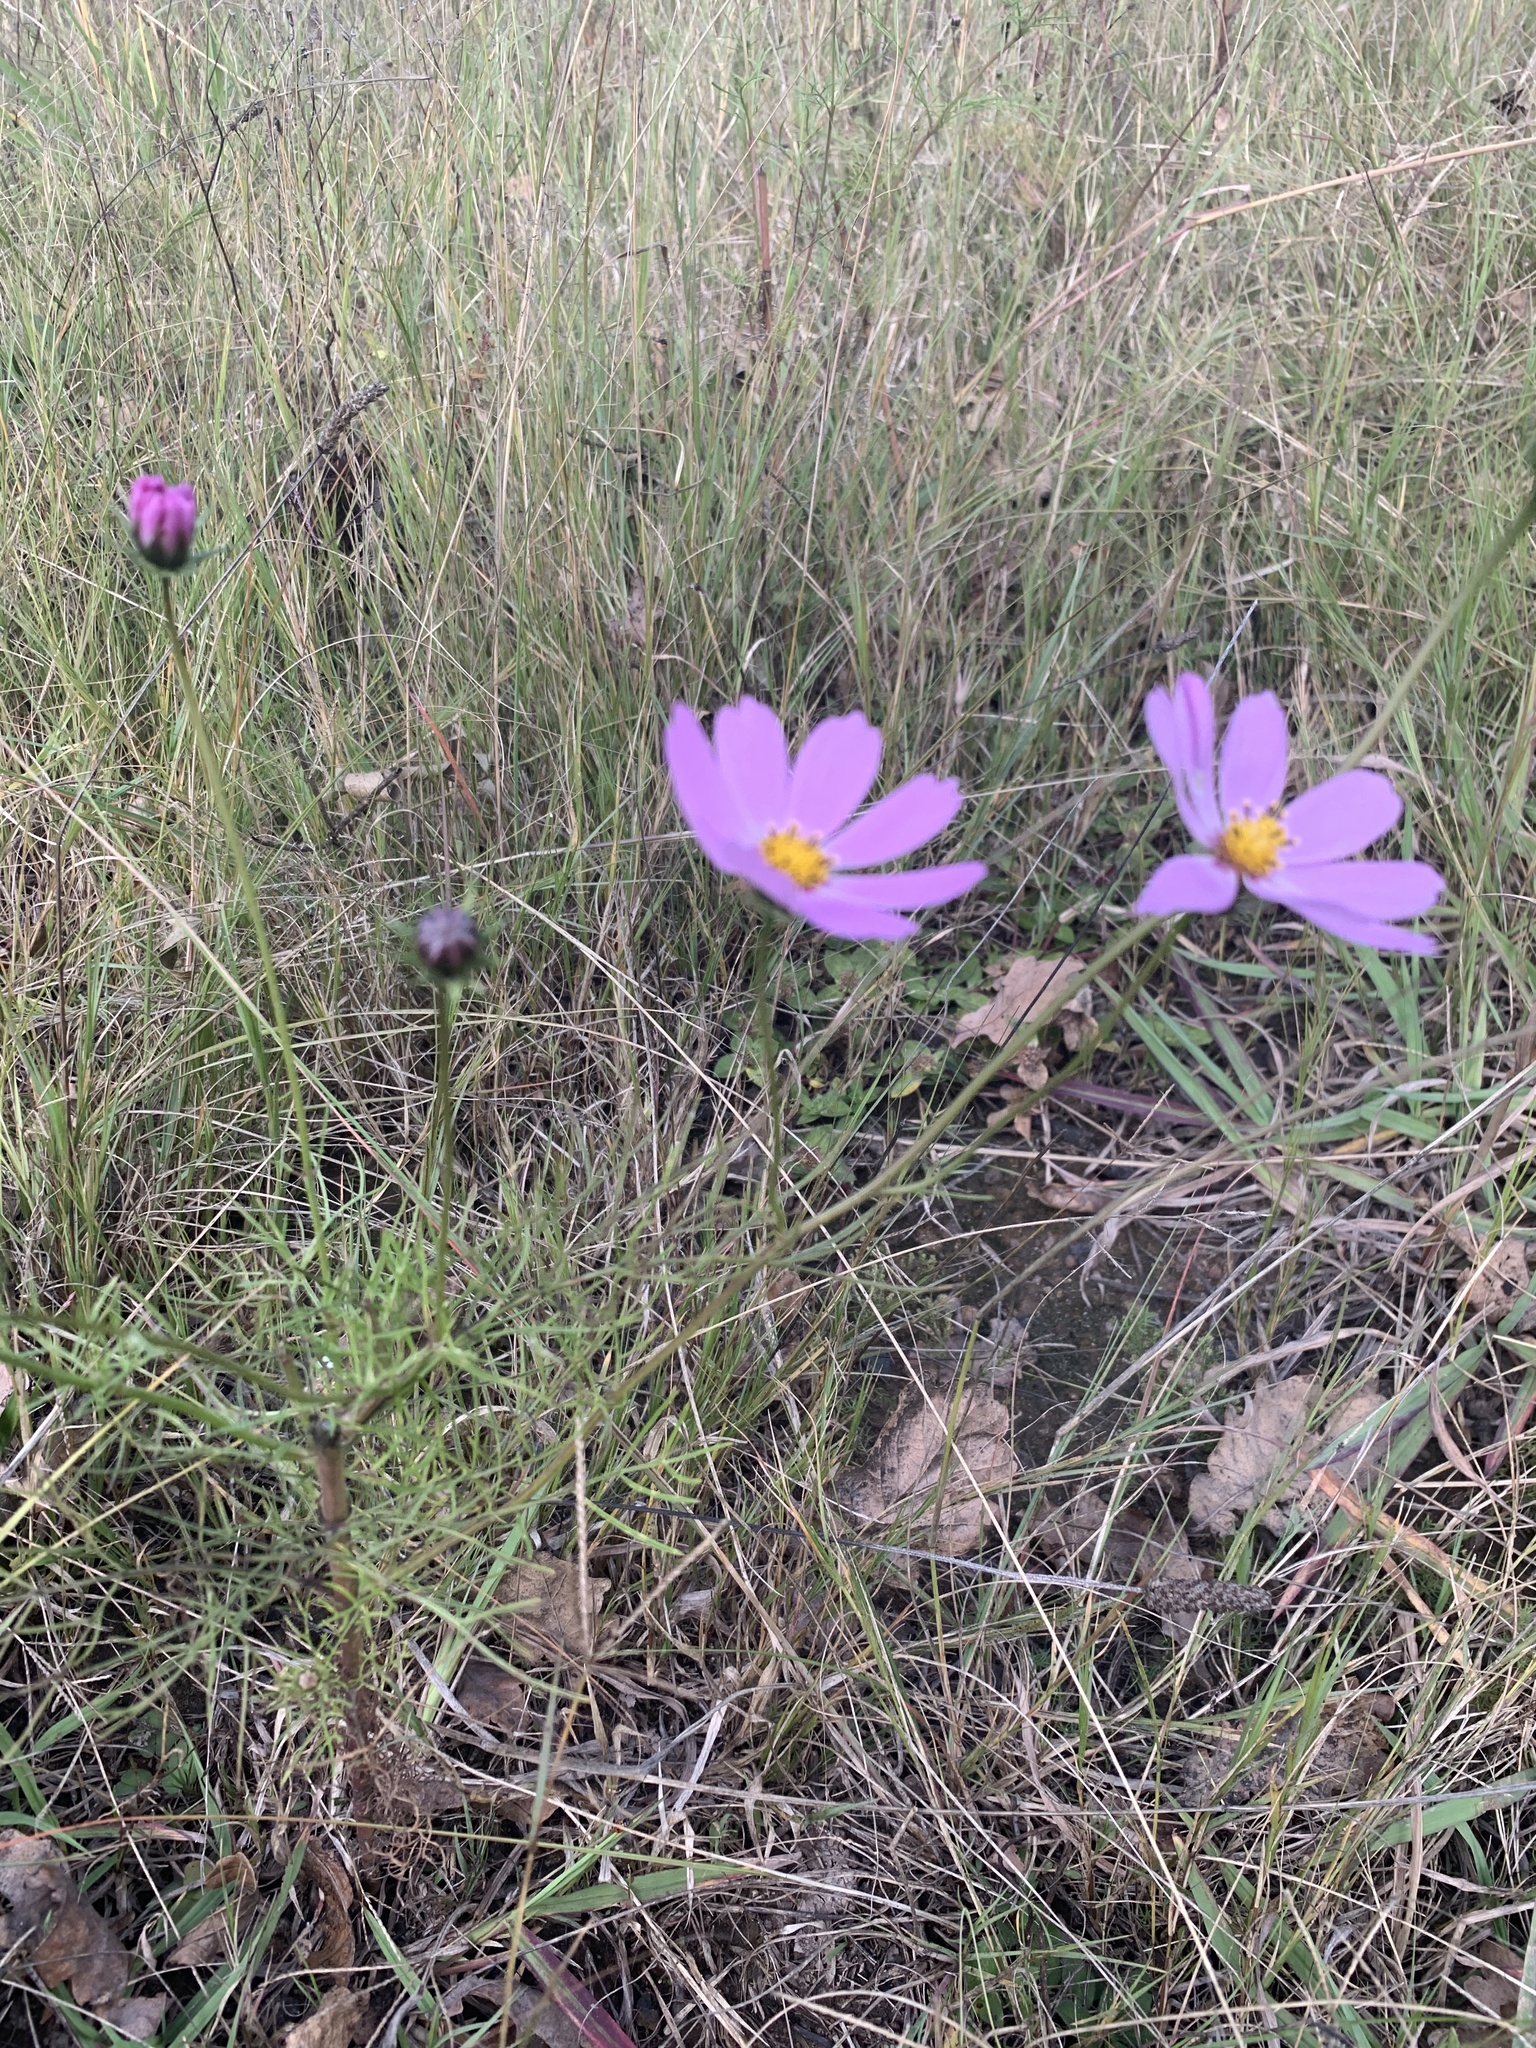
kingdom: Plantae
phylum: Tracheophyta
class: Magnoliopsida
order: Asterales
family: Asteraceae
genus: Cosmos
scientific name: Cosmos bipinnatus
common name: Garden cosmos
